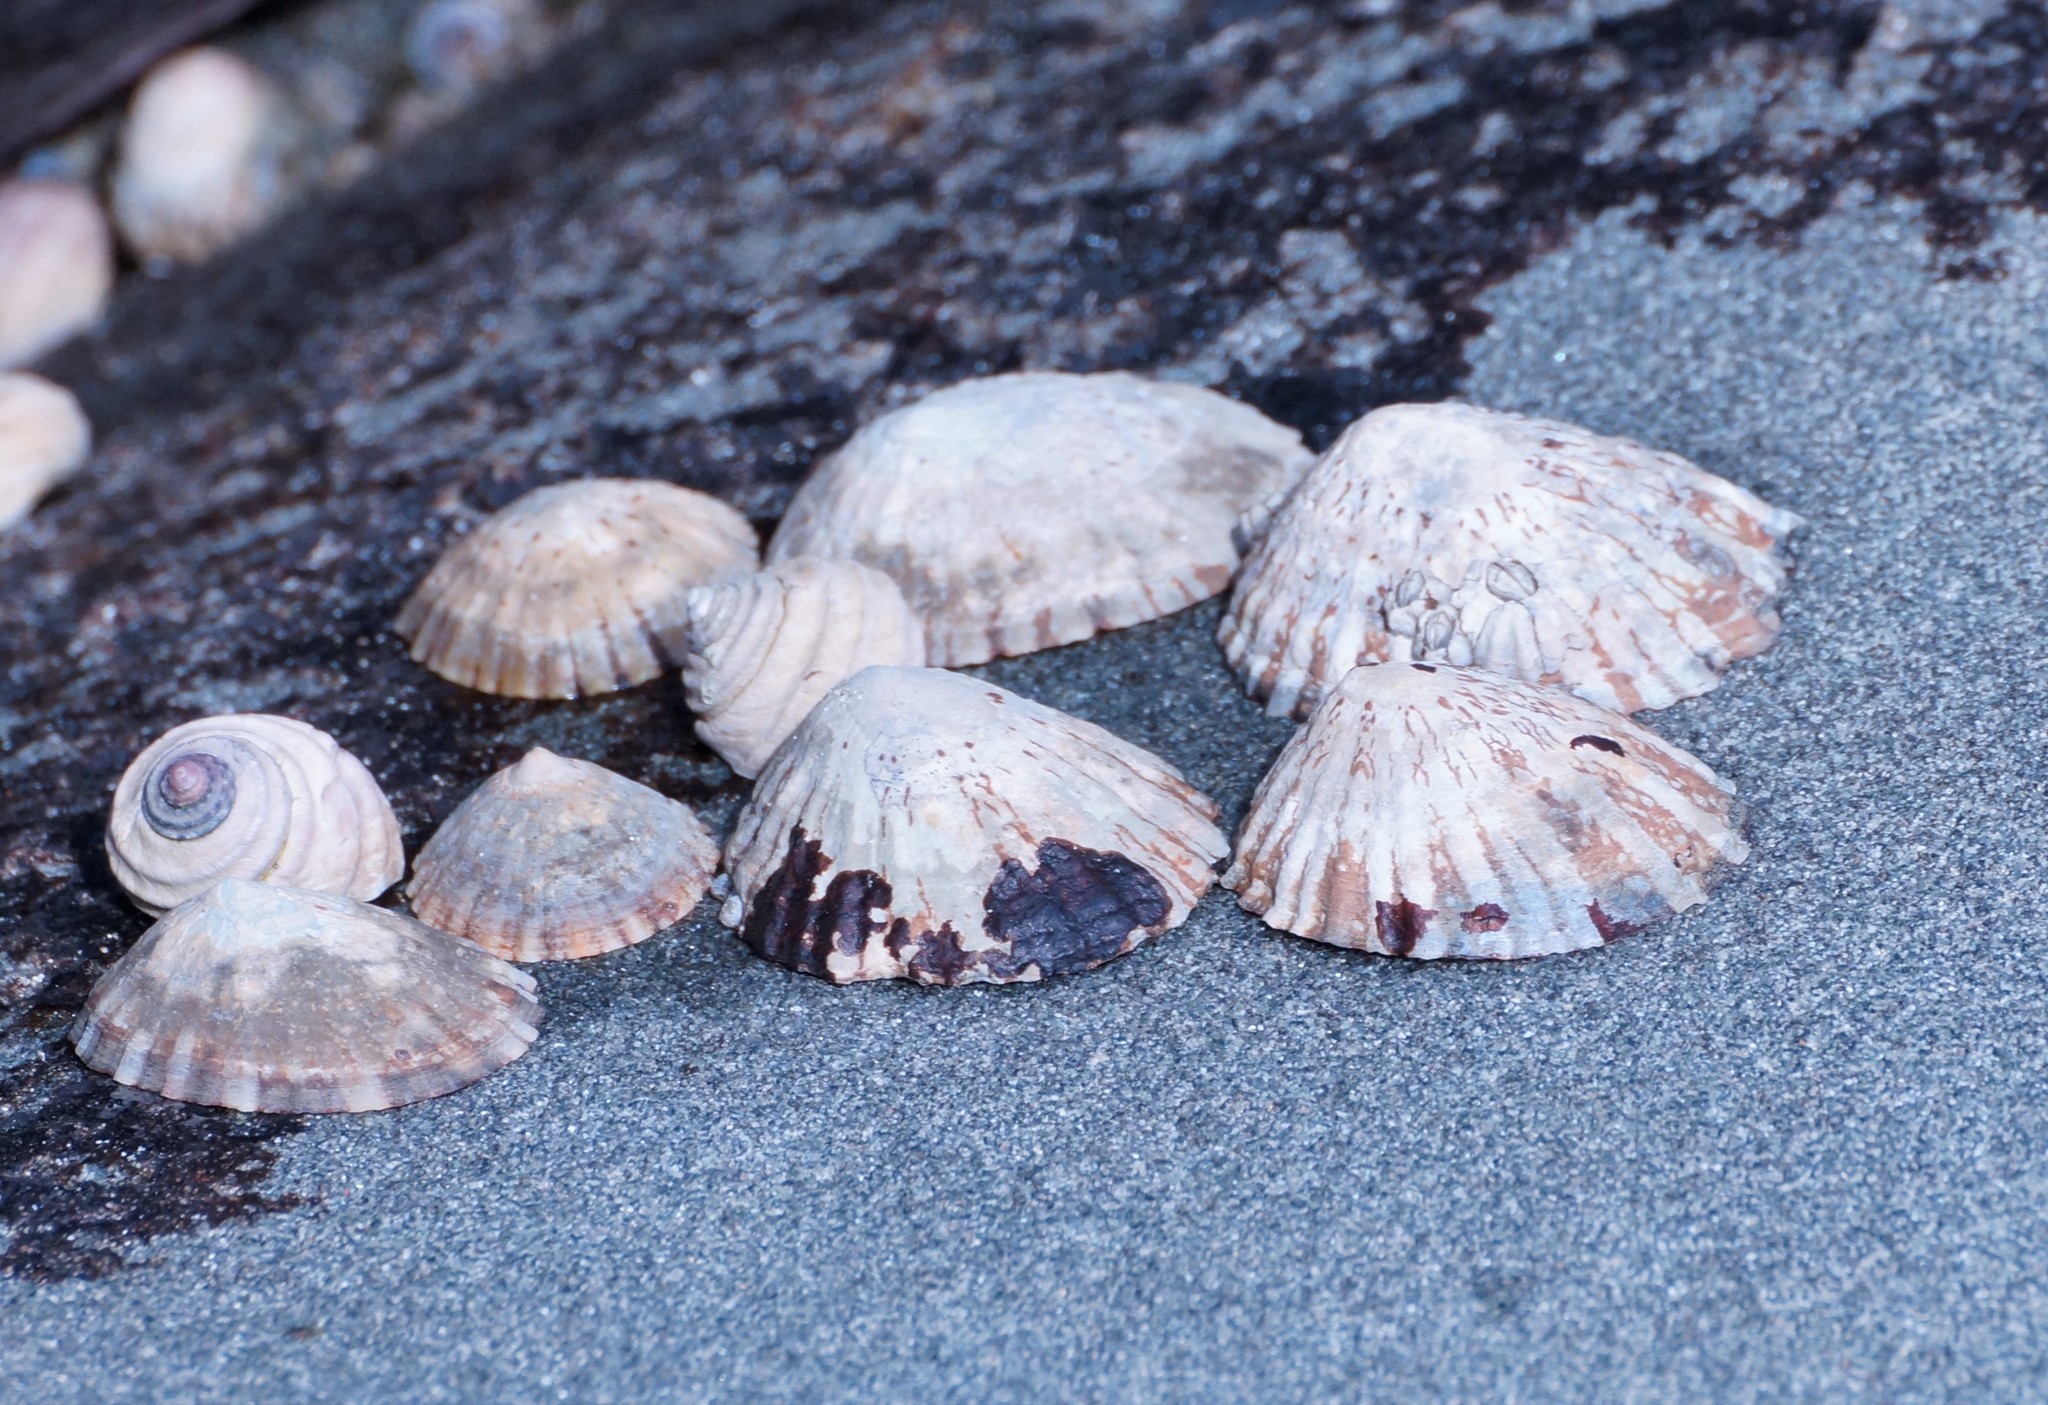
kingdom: Animalia
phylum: Mollusca
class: Gastropoda
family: Nacellidae
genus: Cellana
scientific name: Cellana tramoserica
